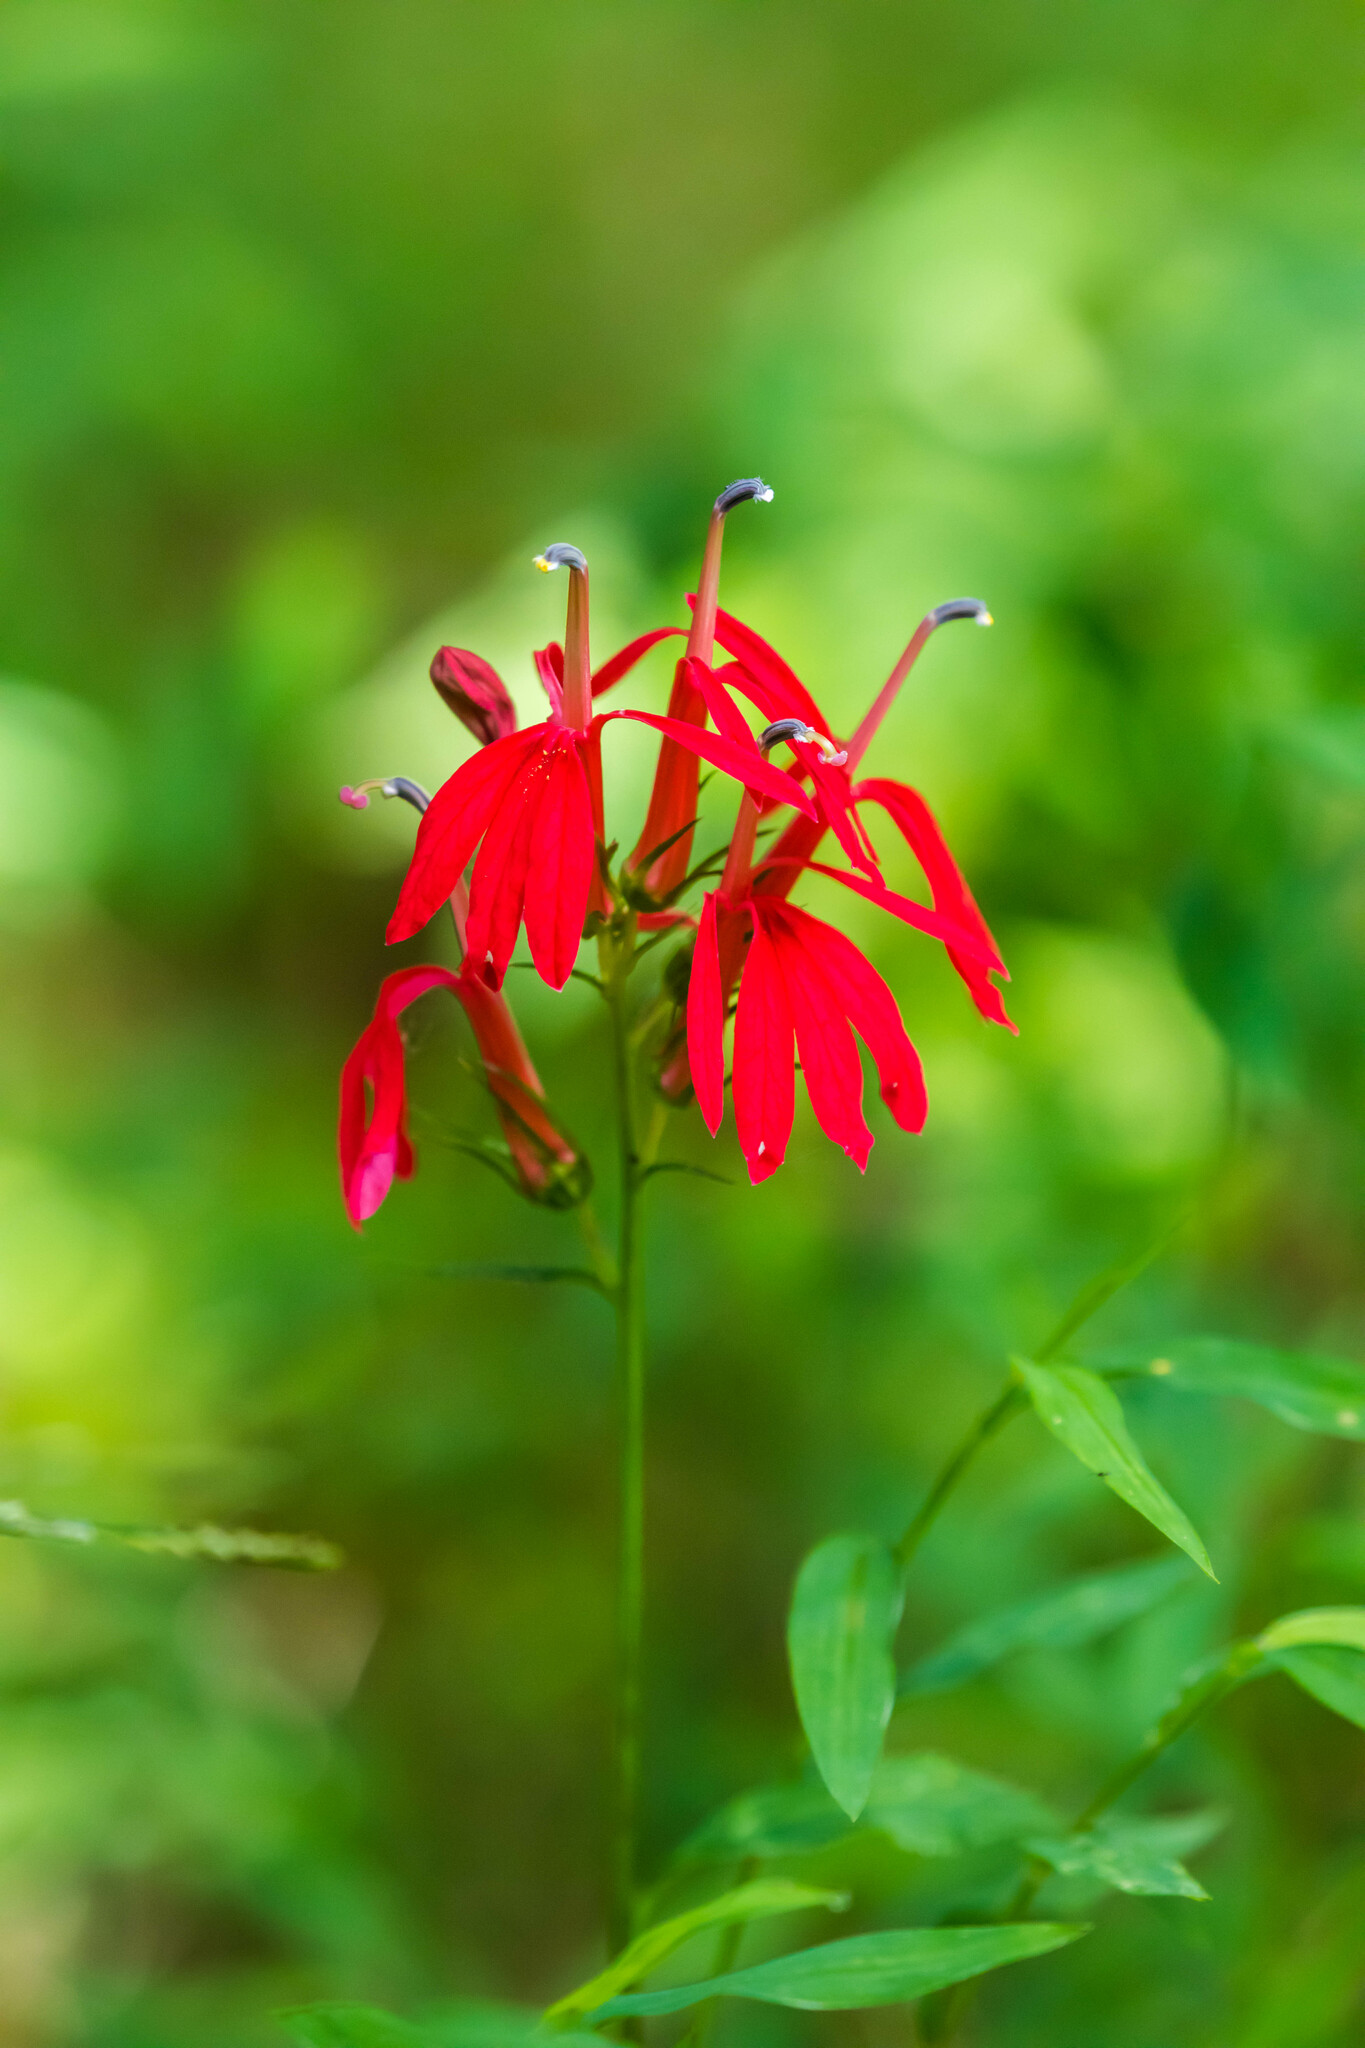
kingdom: Plantae
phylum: Tracheophyta
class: Magnoliopsida
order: Asterales
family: Campanulaceae
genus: Lobelia
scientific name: Lobelia cardinalis
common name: Cardinal flower
